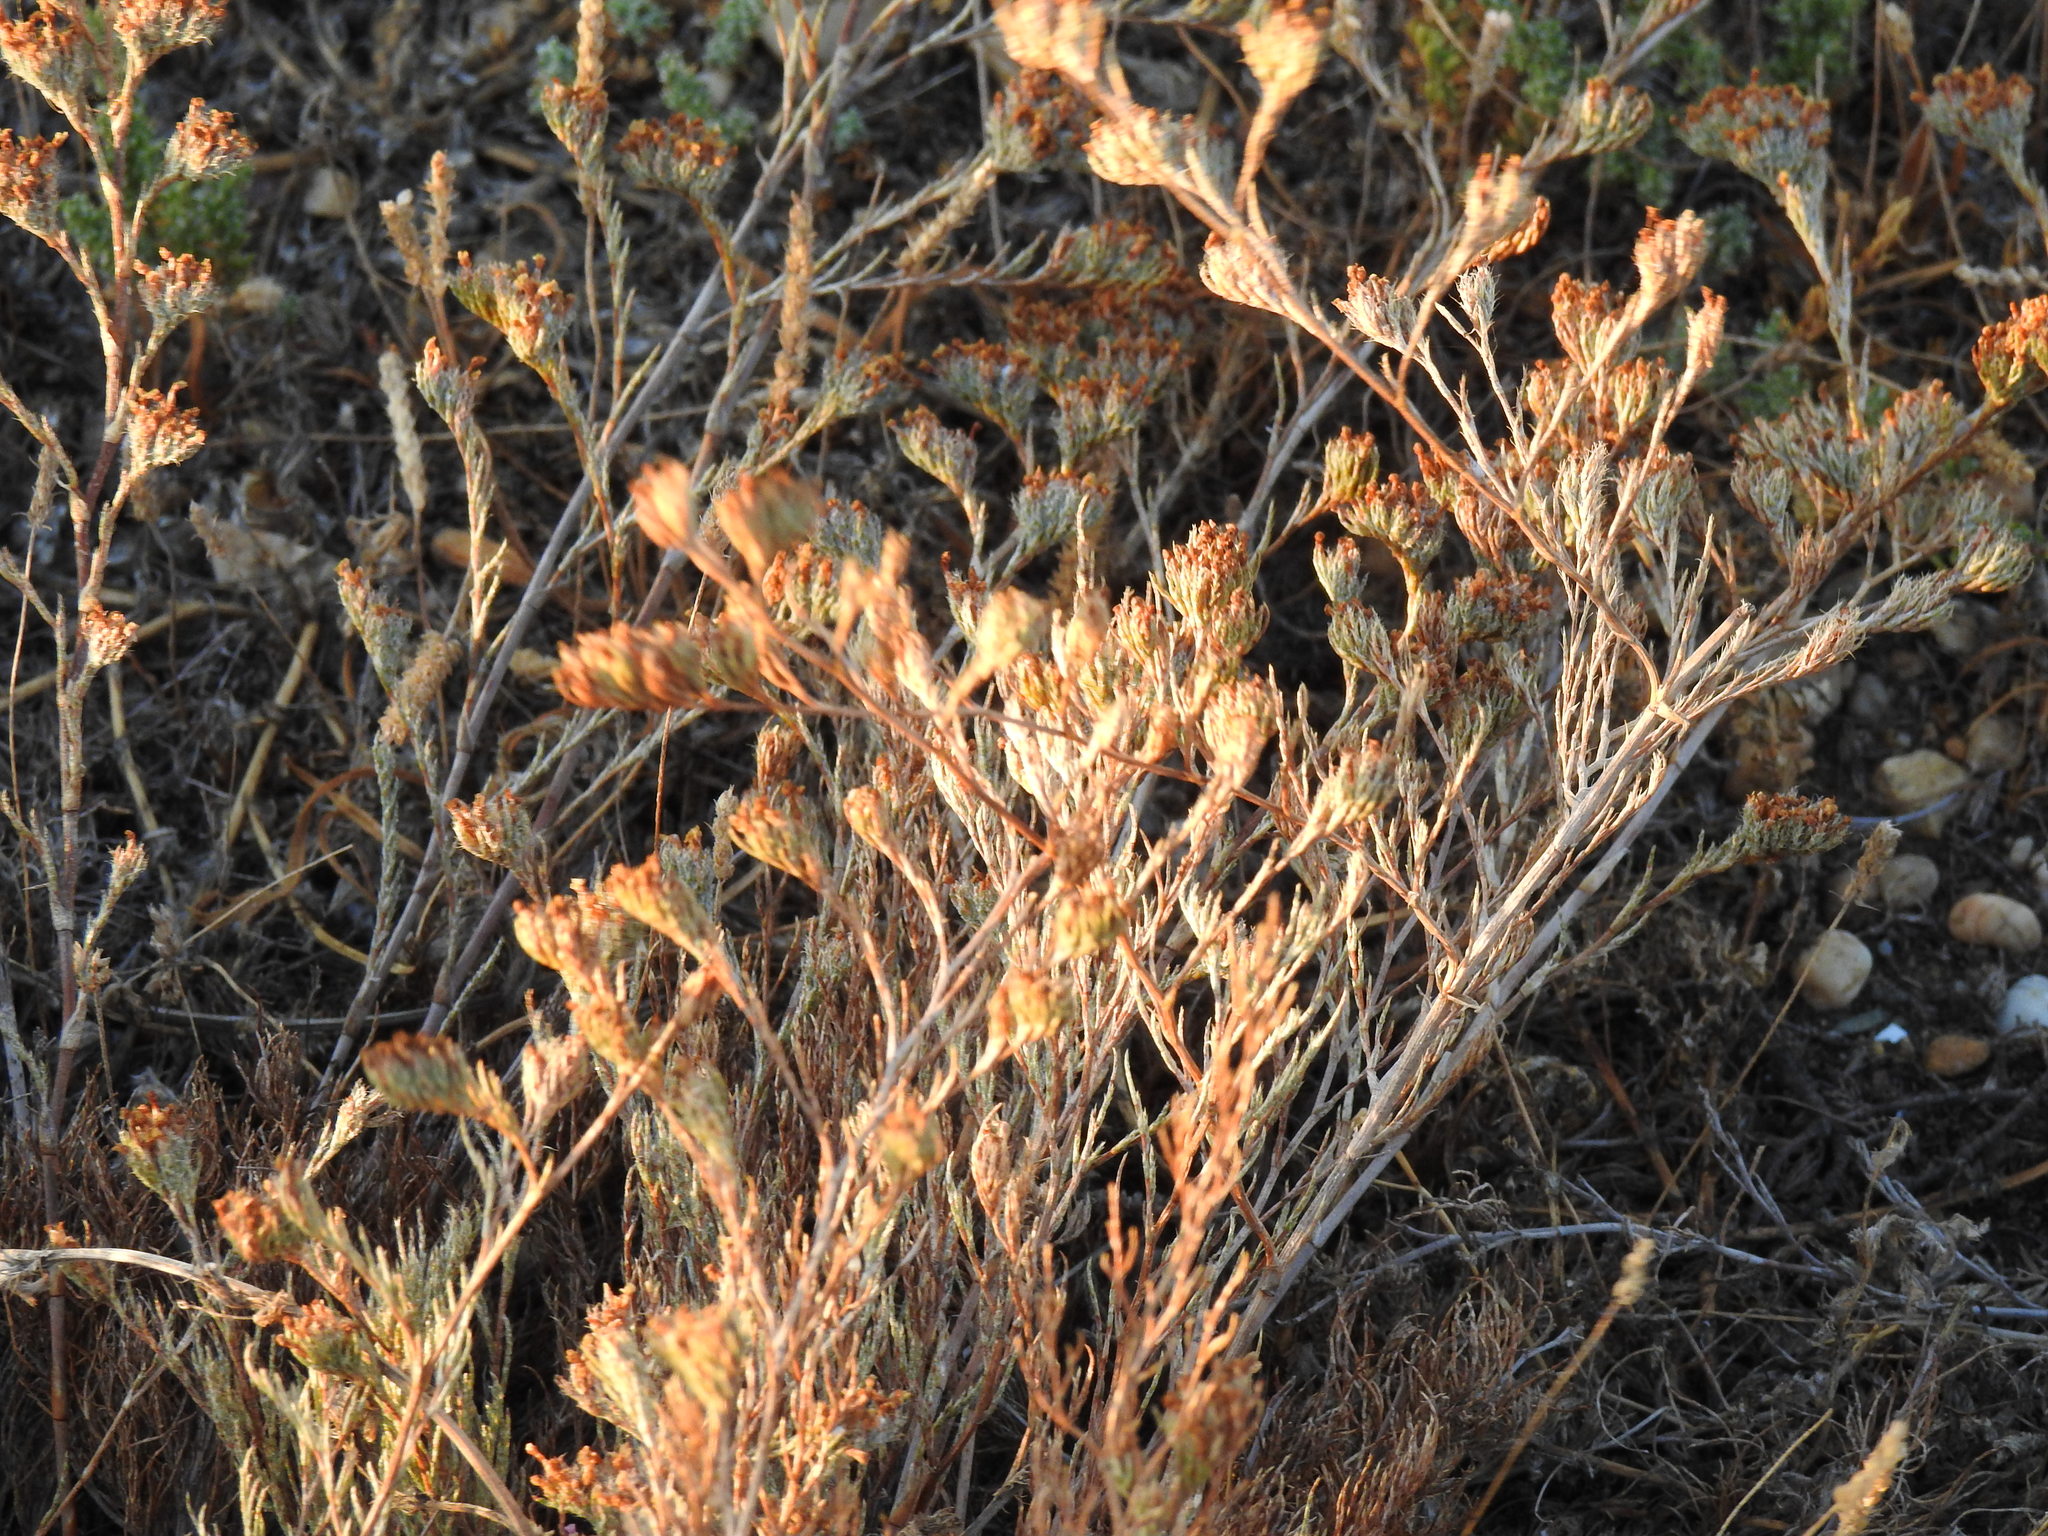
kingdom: Plantae
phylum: Tracheophyta
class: Magnoliopsida
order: Caryophyllales
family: Plumbaginaceae
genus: Myriolimon
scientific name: Myriolimon ferulaceum
